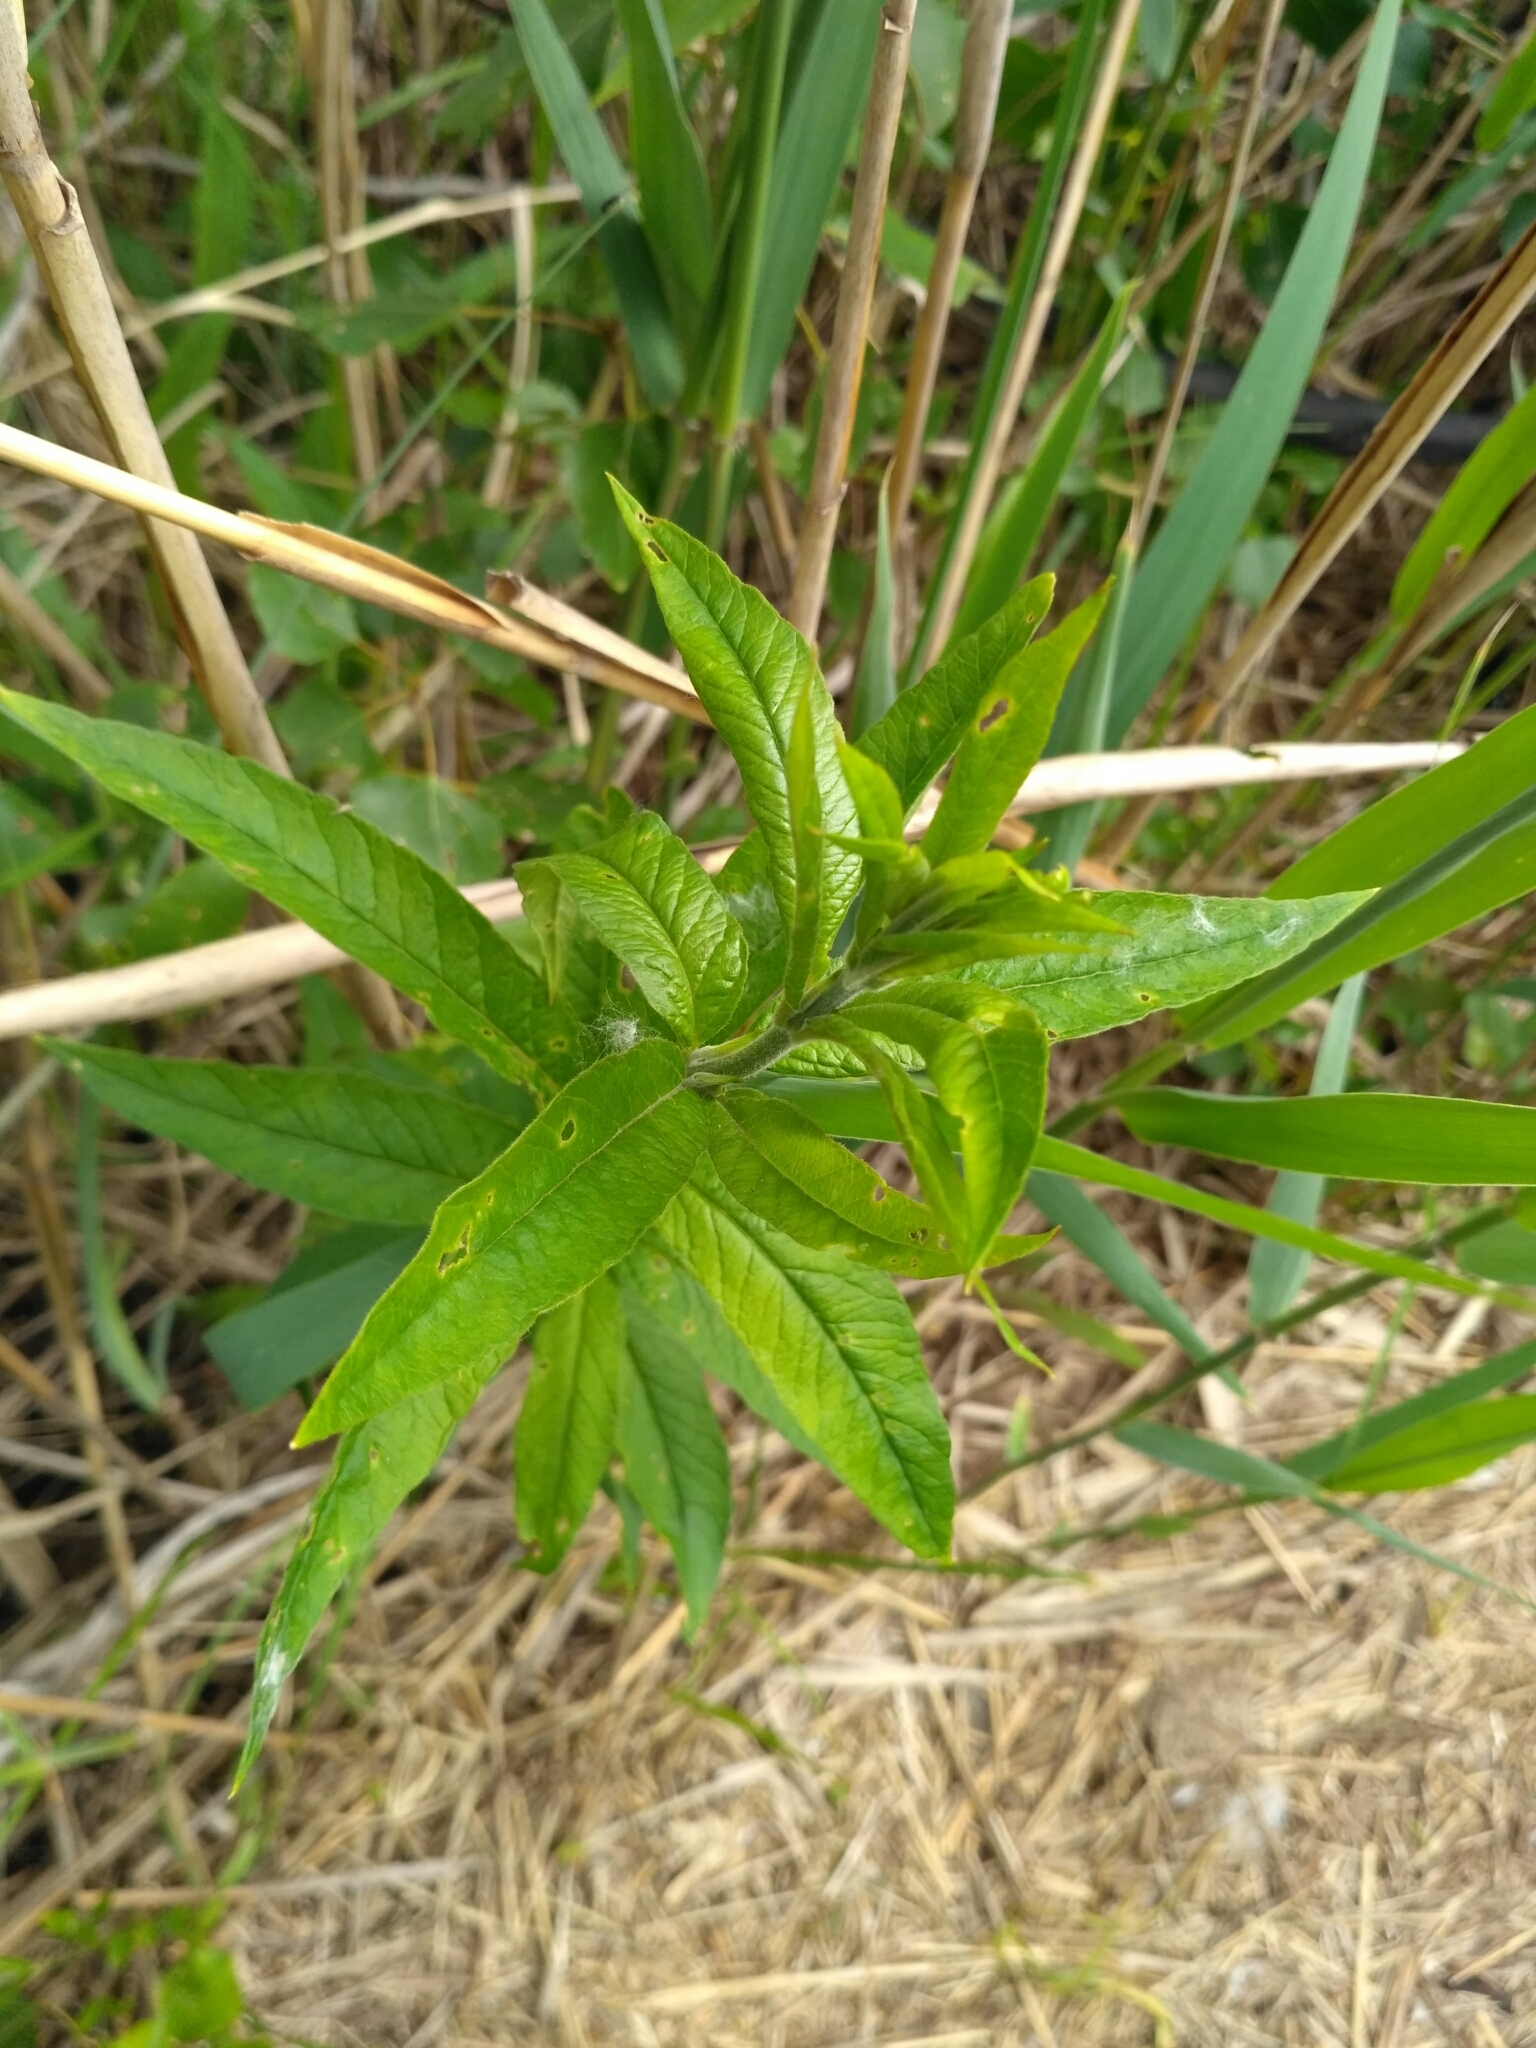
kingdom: Plantae
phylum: Tracheophyta
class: Magnoliopsida
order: Ericales
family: Primulaceae
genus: Lysimachia
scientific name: Lysimachia vulgaris
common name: Yellow loosestrife
